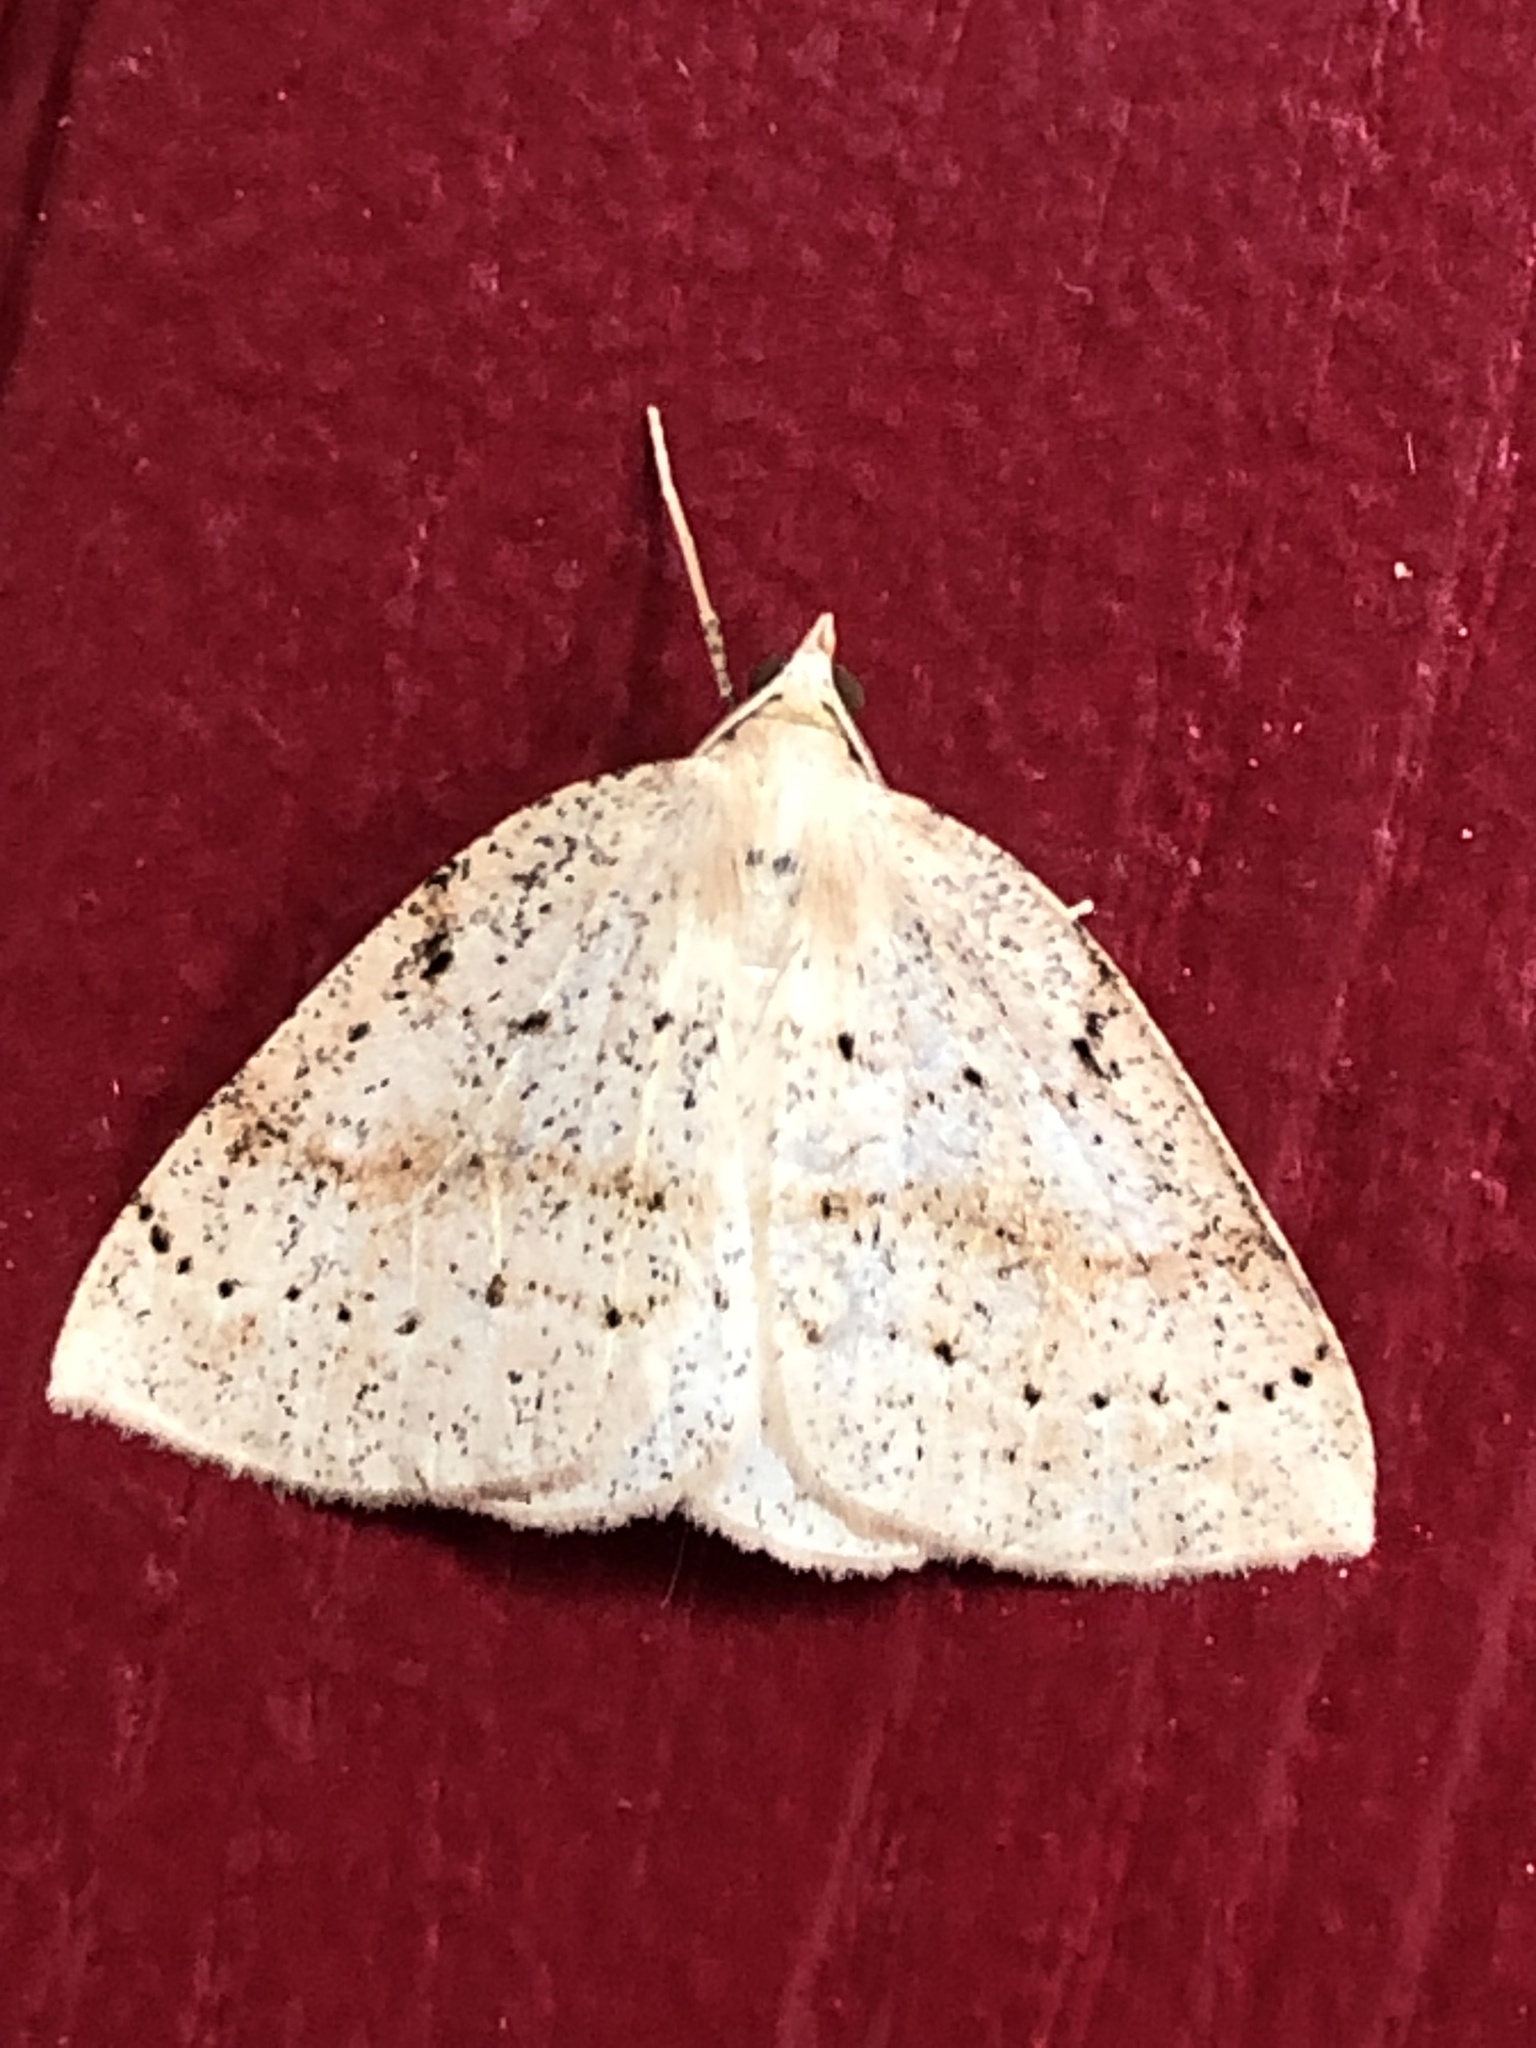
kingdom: Animalia
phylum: Arthropoda
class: Insecta
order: Lepidoptera
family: Geometridae
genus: Thallophaga
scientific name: Thallophaga hyperborea
